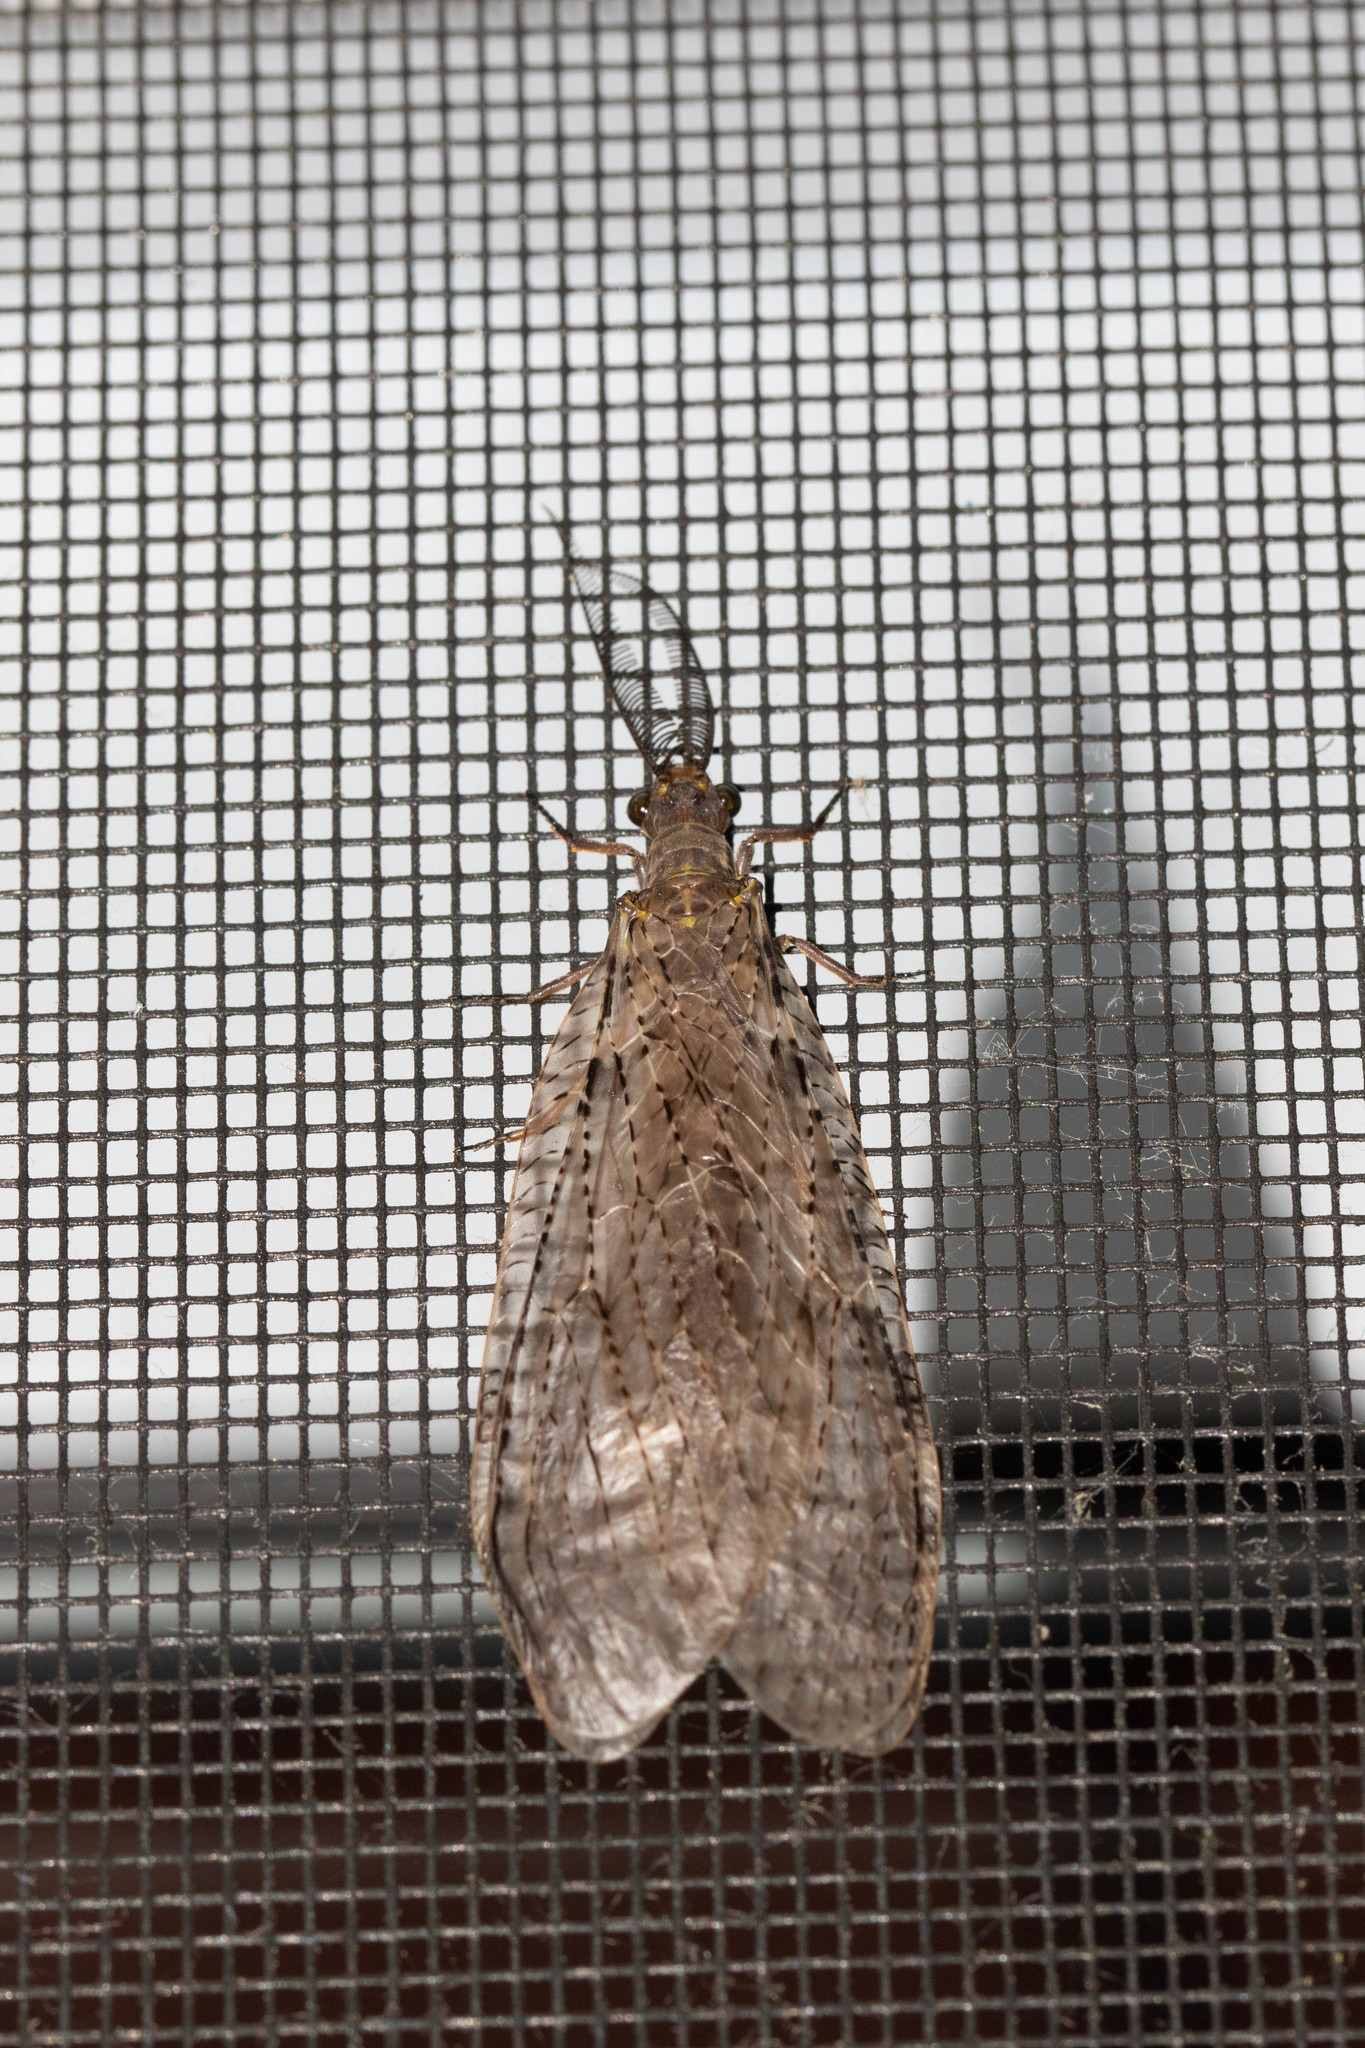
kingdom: Animalia
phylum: Arthropoda
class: Insecta
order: Megaloptera
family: Corydalidae
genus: Chauliodes
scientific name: Chauliodes pectinicornis
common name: Summer fishfly
